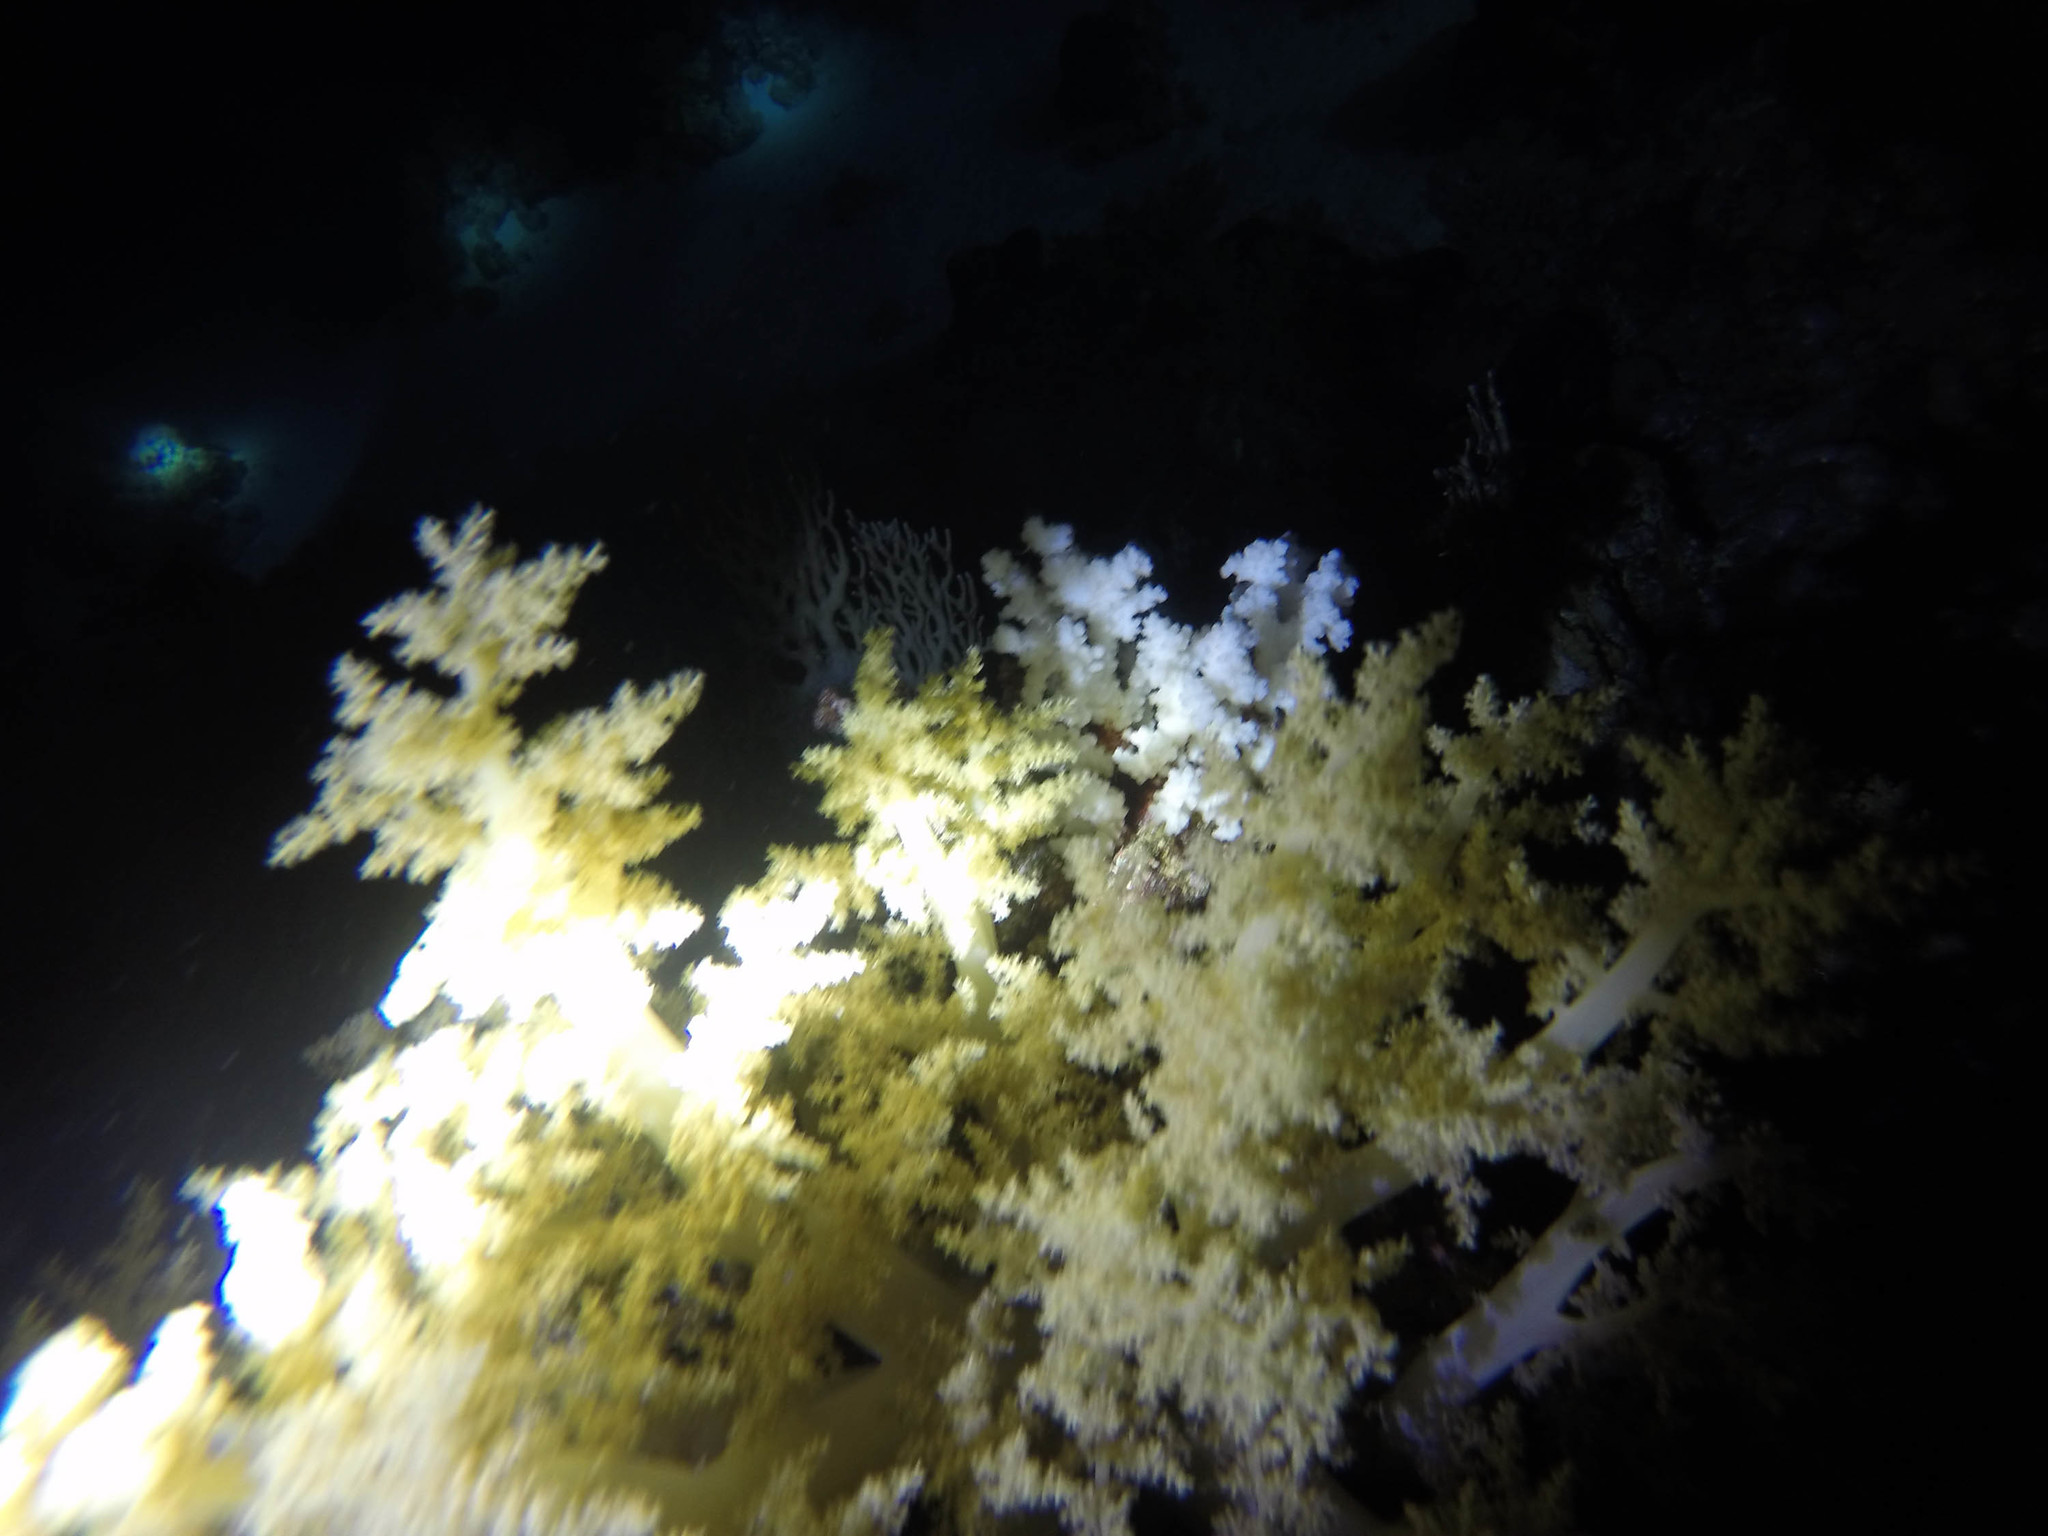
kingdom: Animalia
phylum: Cnidaria
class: Anthozoa
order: Malacalcyonacea
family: Nephtheidae
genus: Litophyton
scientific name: Litophyton
